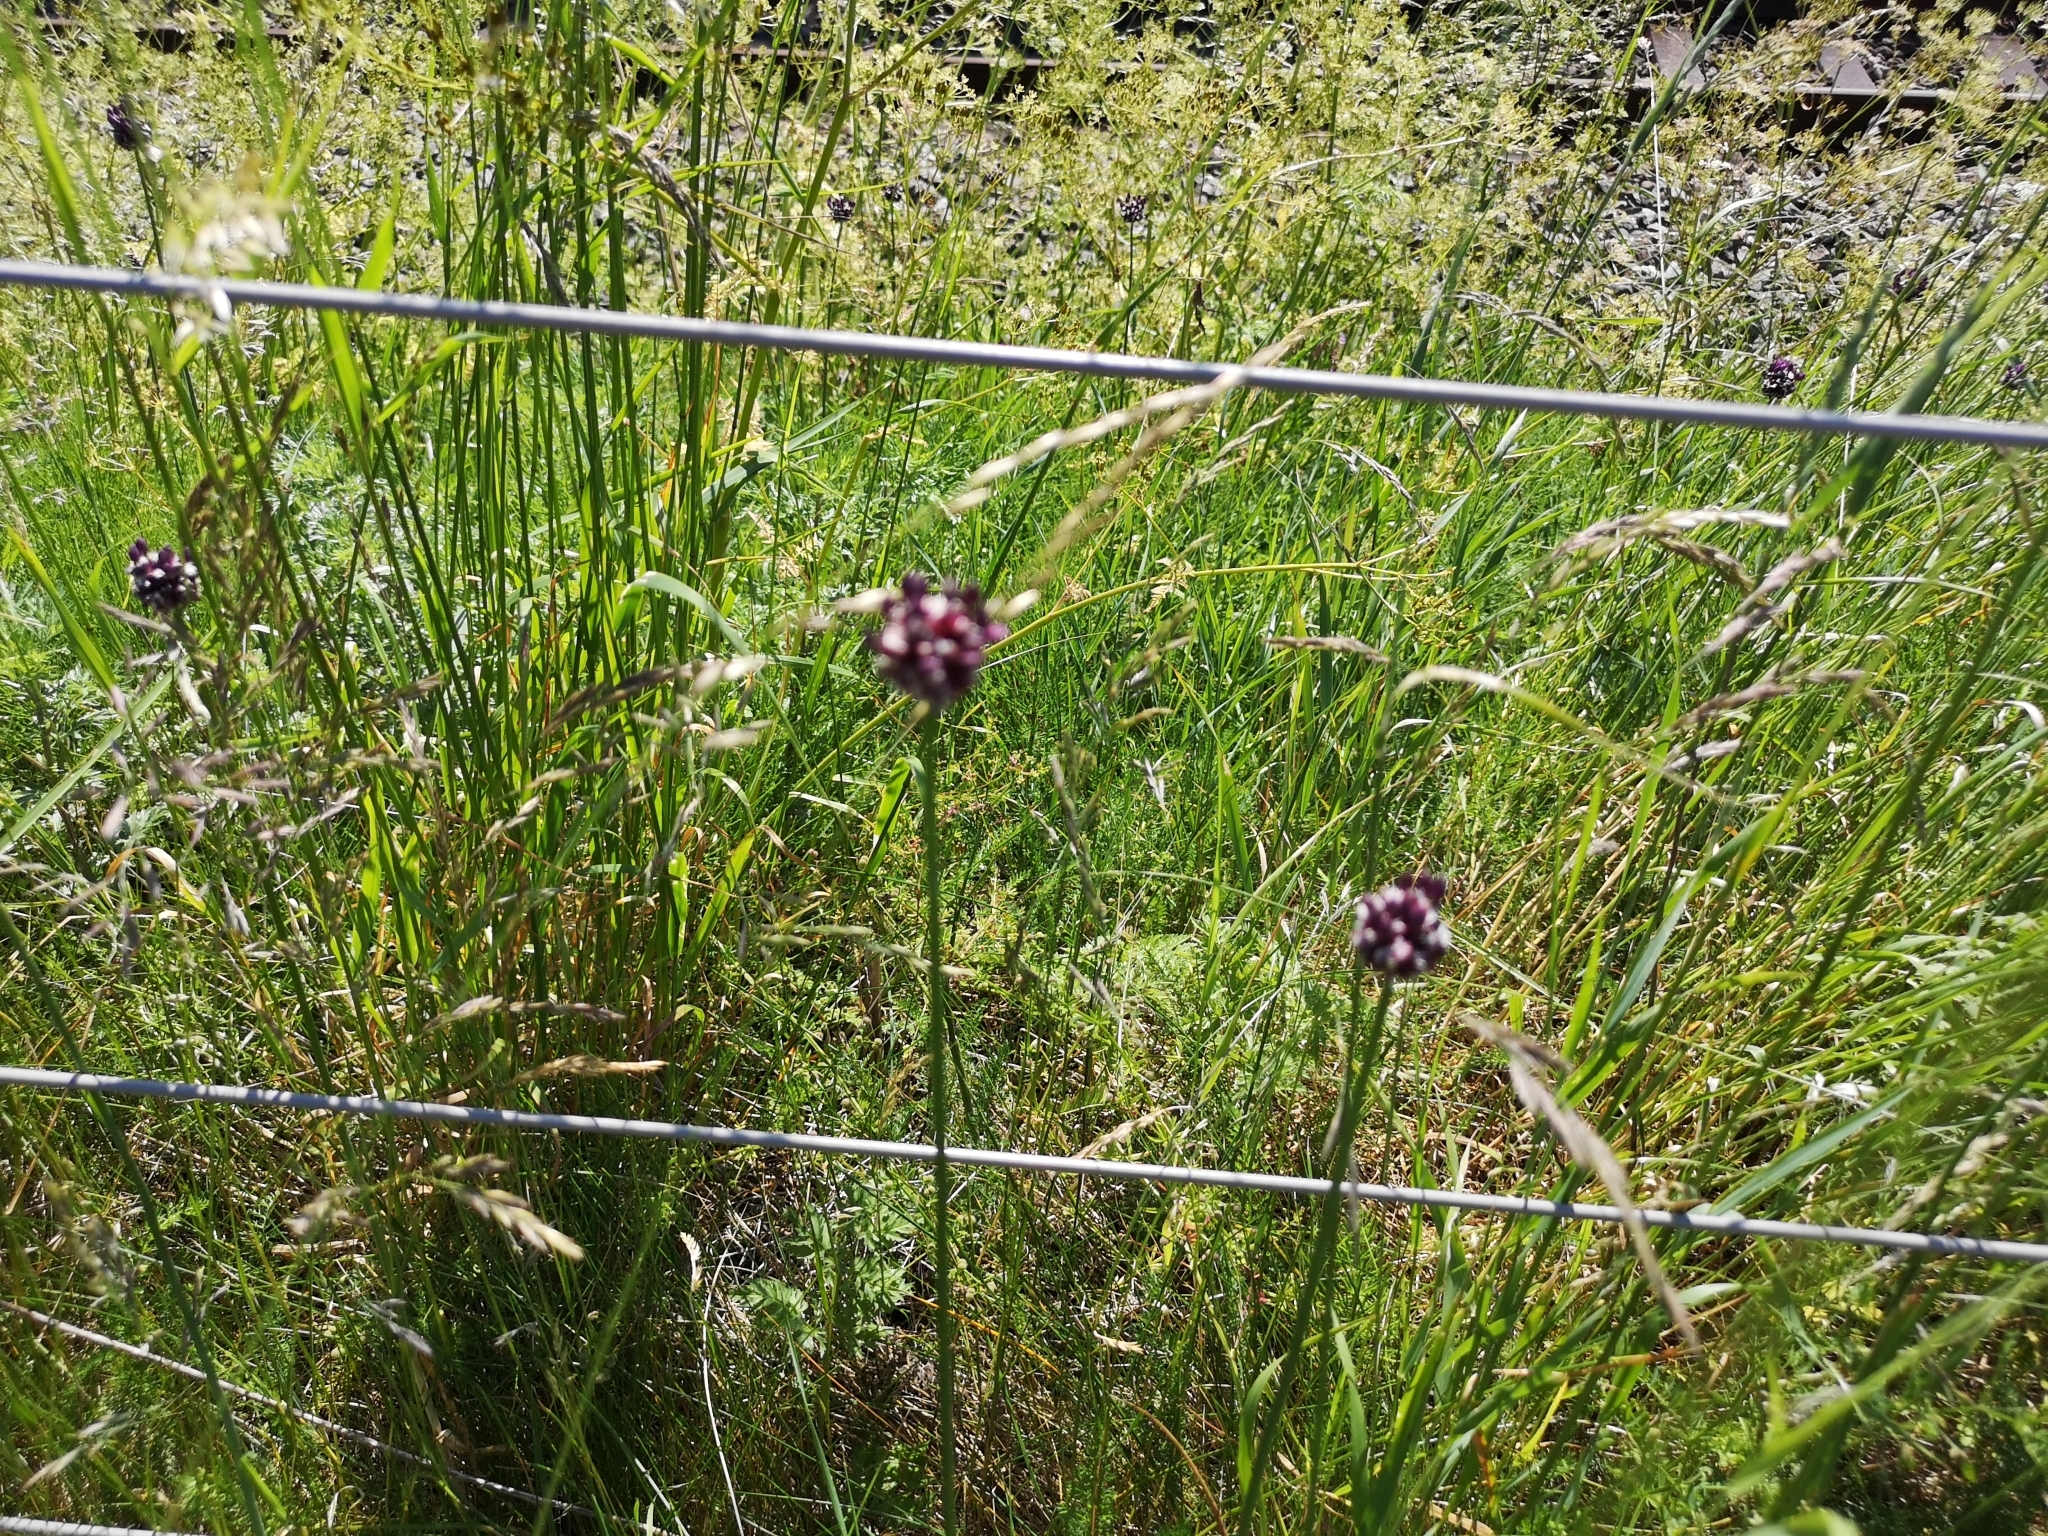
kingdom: Plantae
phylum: Tracheophyta
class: Liliopsida
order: Asparagales
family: Amaryllidaceae
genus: Allium
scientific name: Allium scorodoprasum
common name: Sand leek
